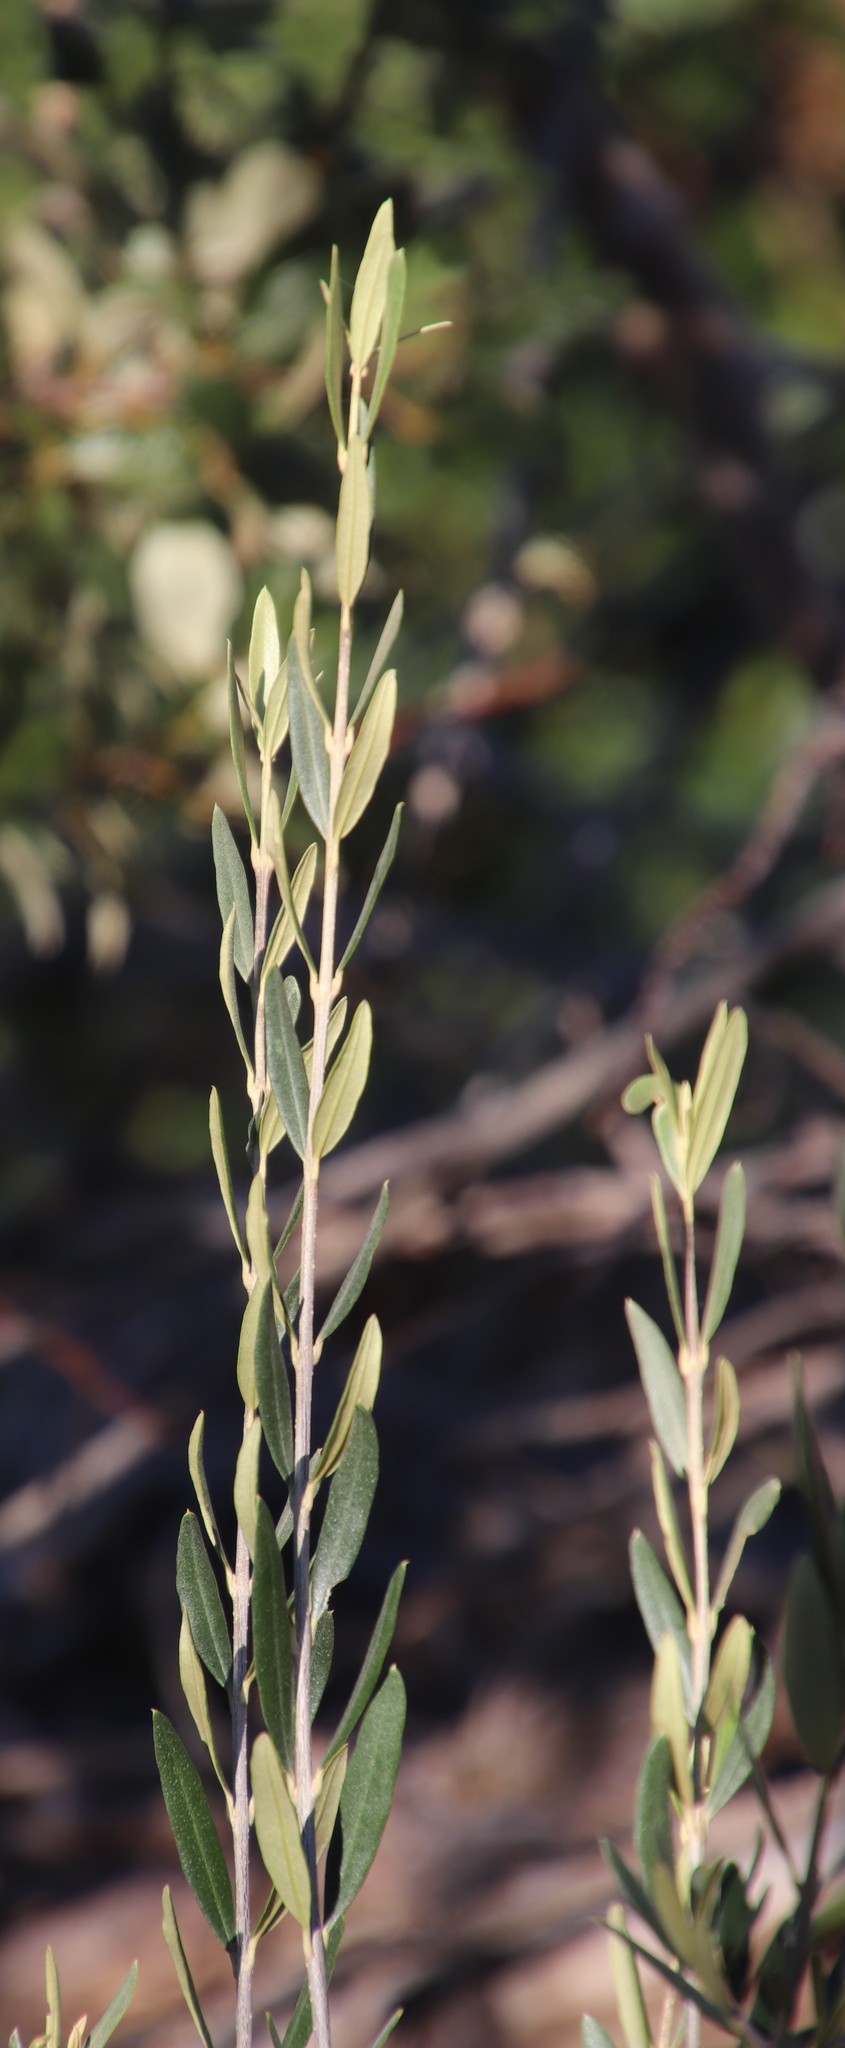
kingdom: Plantae
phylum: Tracheophyta
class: Magnoliopsida
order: Lamiales
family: Oleaceae
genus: Olea
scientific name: Olea europaea
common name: Olive
